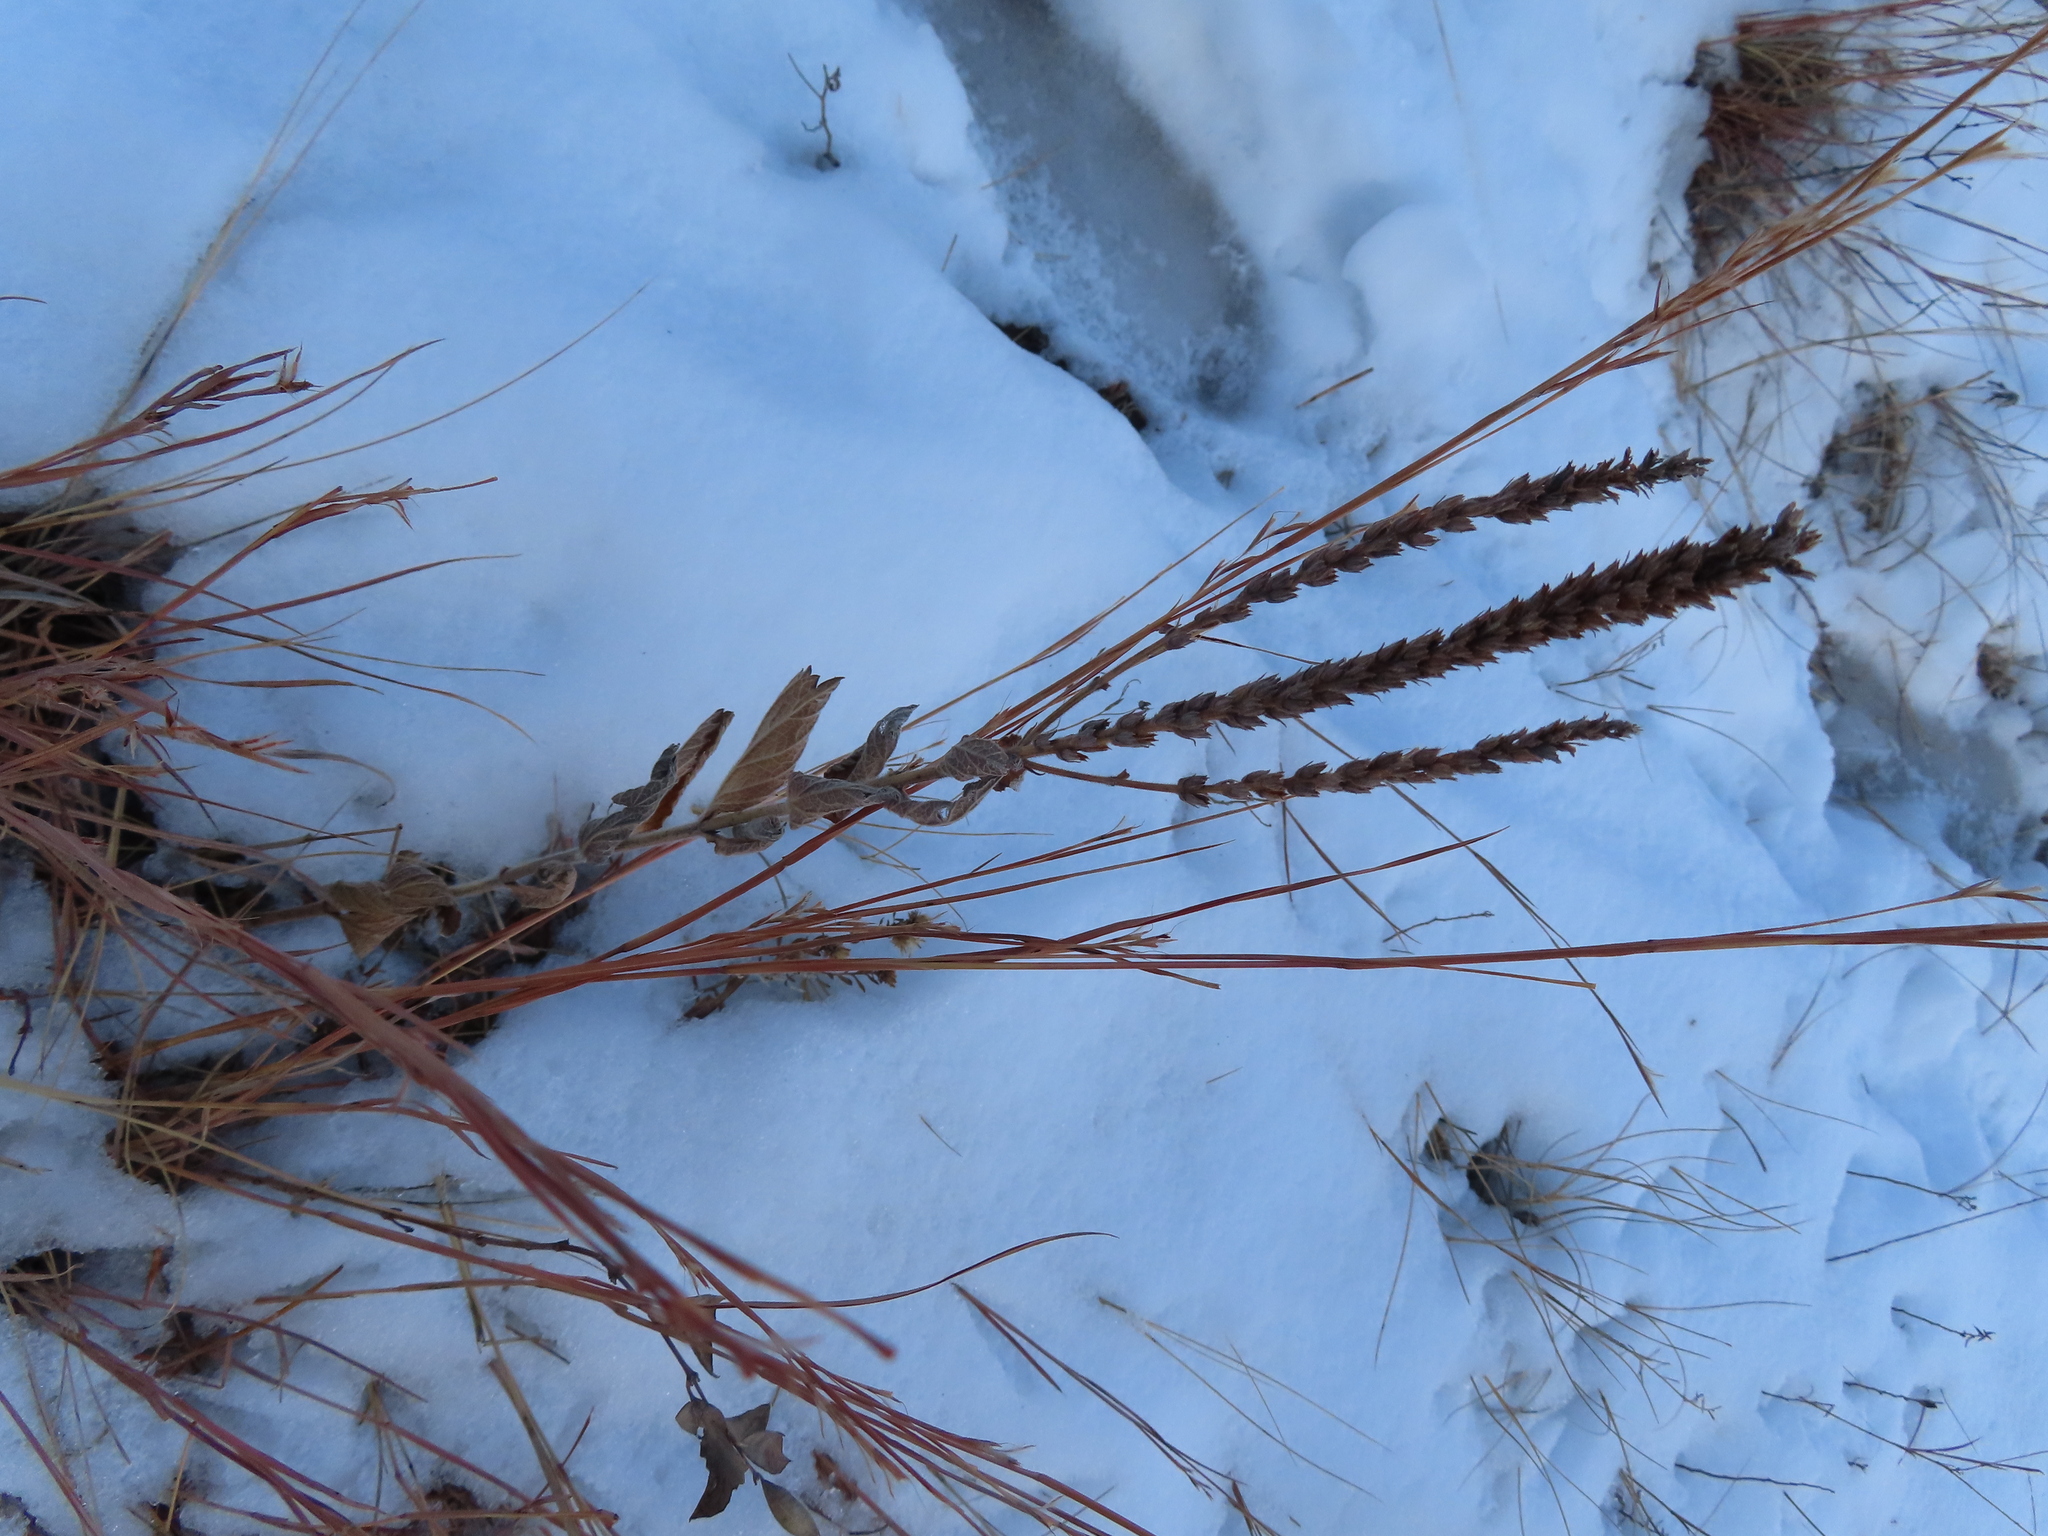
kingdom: Plantae
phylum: Tracheophyta
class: Magnoliopsida
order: Lamiales
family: Verbenaceae
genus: Verbena
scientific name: Verbena stricta
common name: Hoary vervain
